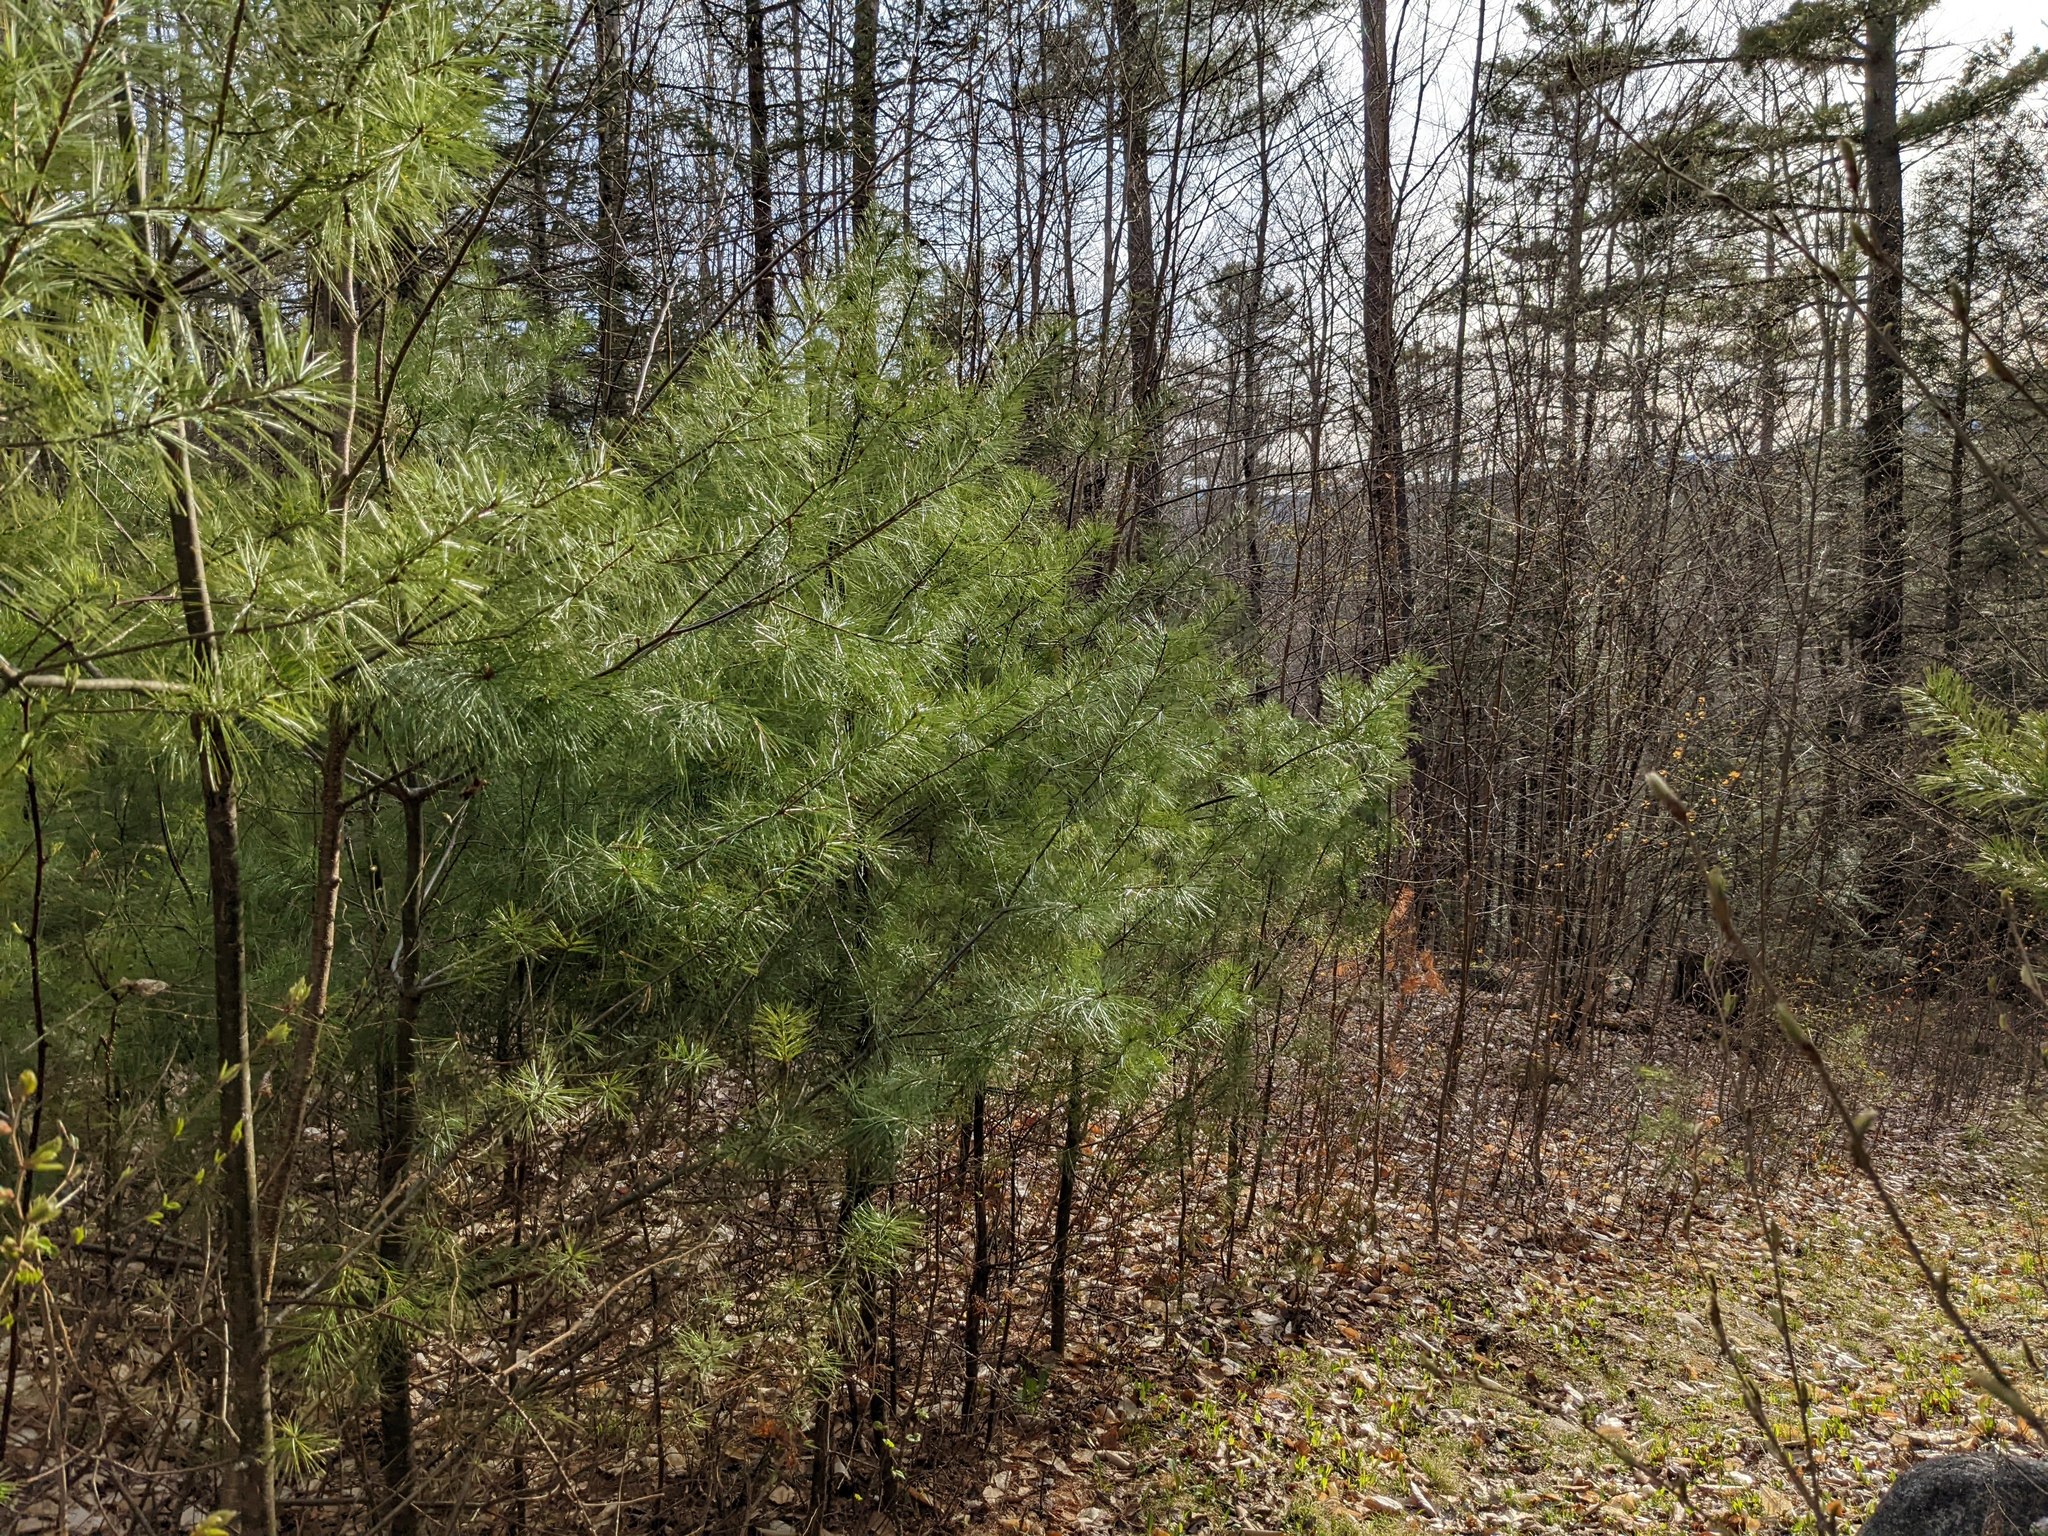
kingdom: Plantae
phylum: Tracheophyta
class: Pinopsida
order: Pinales
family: Pinaceae
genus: Pinus
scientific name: Pinus strobus
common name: Weymouth pine
